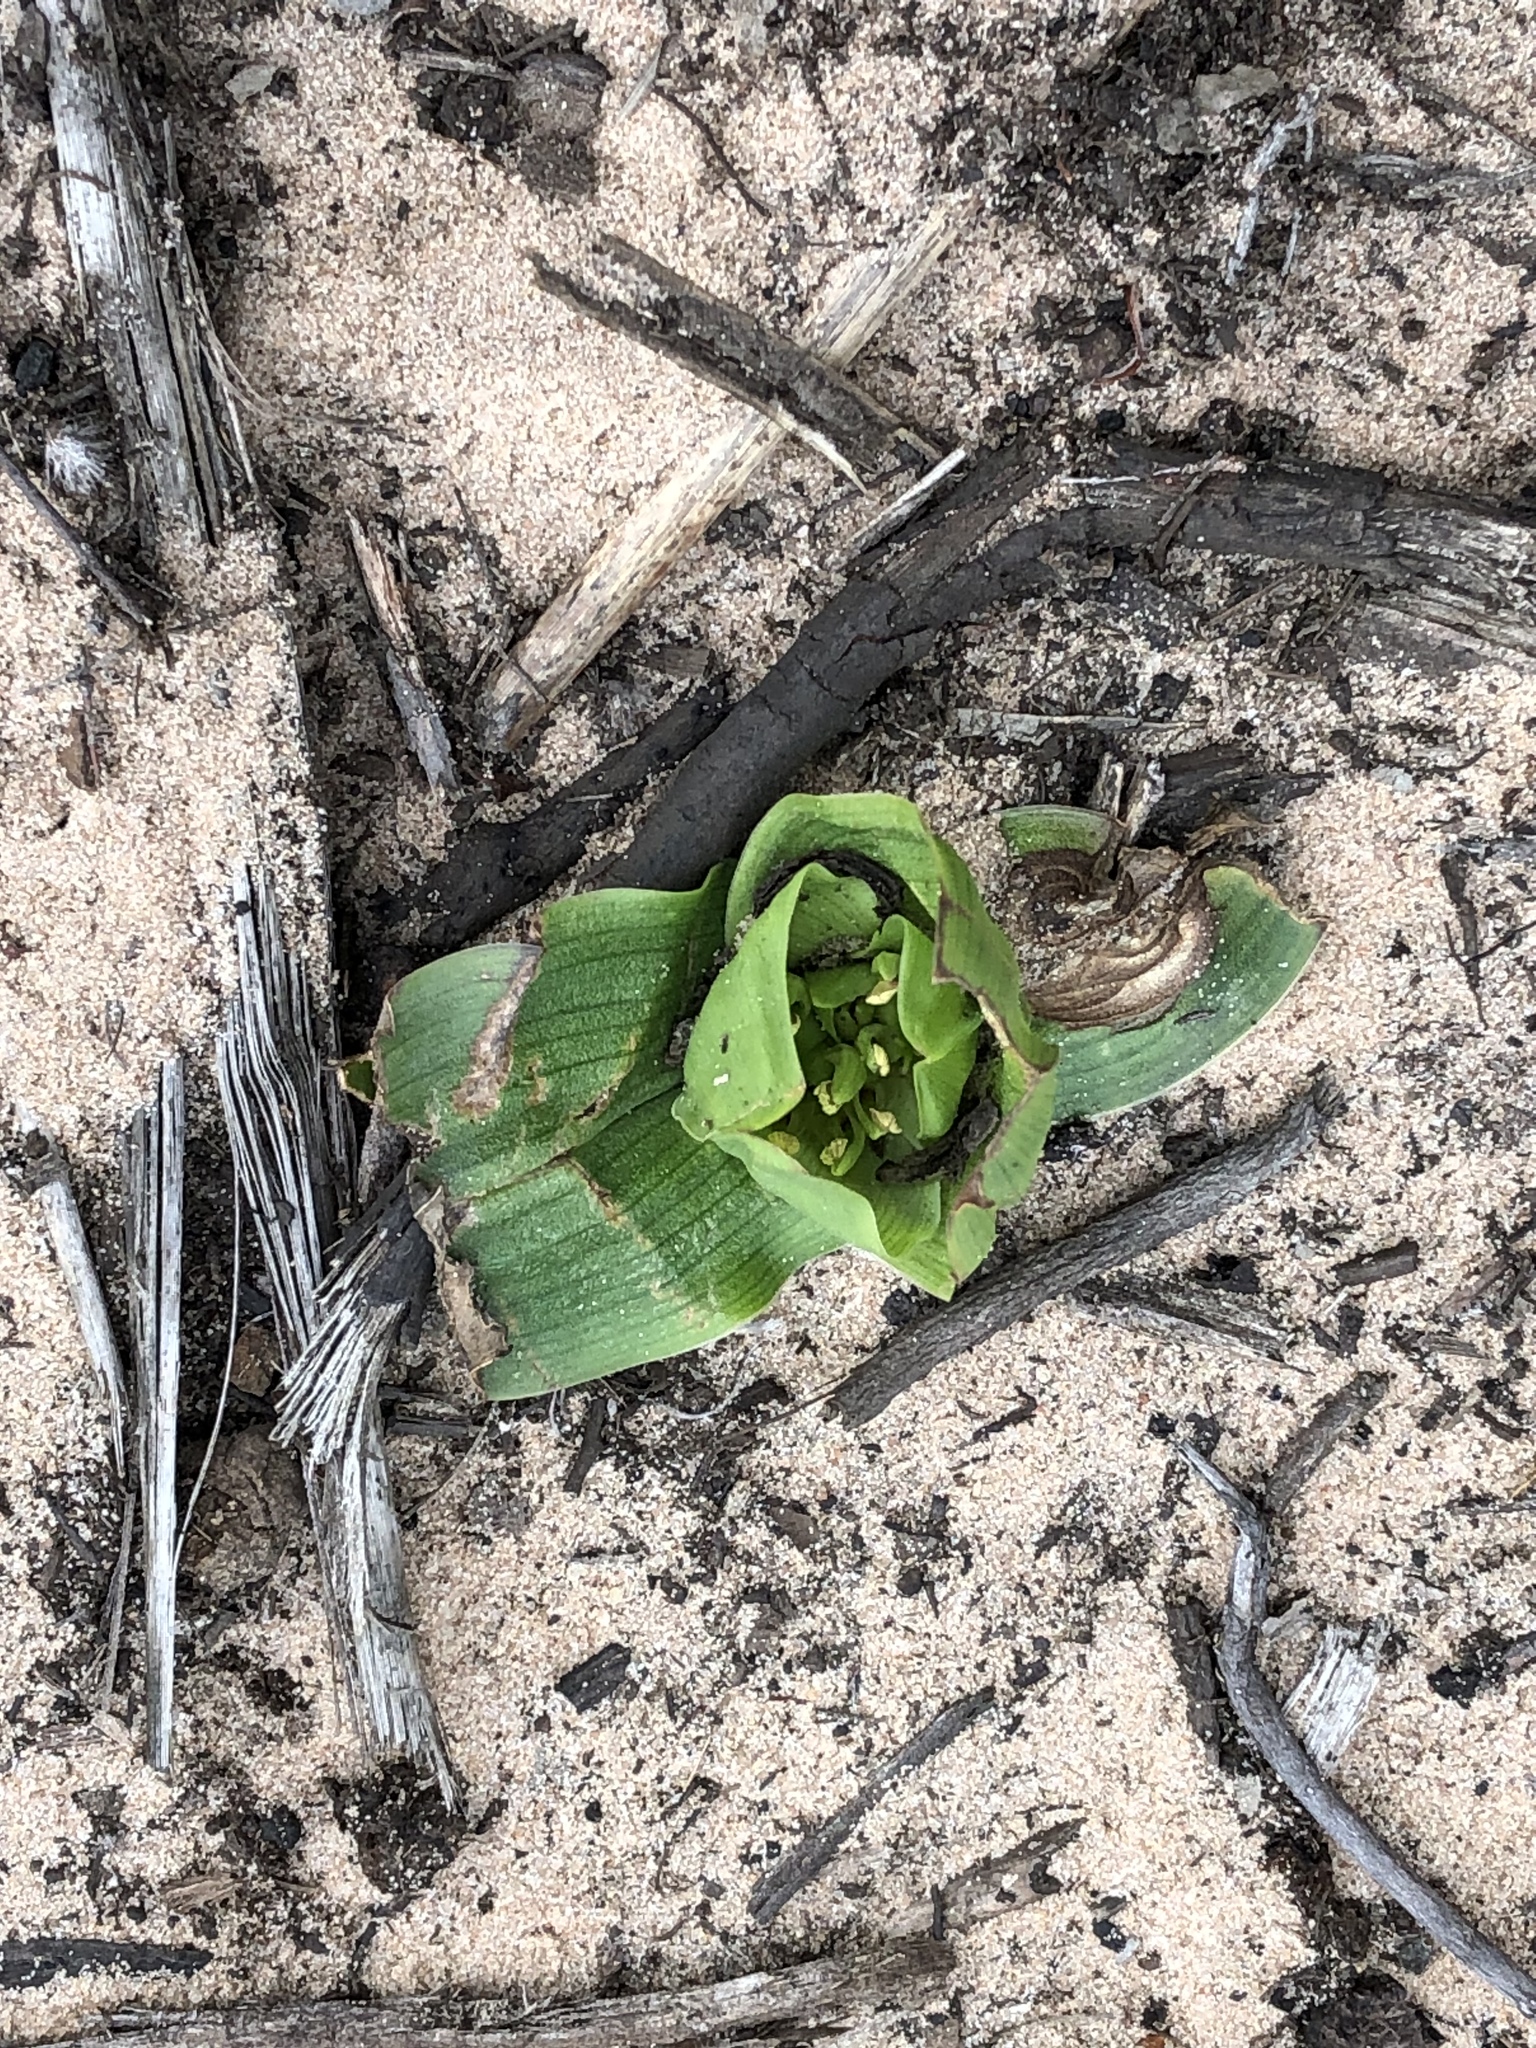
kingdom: Plantae
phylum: Tracheophyta
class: Liliopsida
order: Liliales
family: Colchicaceae
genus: Colchicum
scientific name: Colchicum eucomoides
